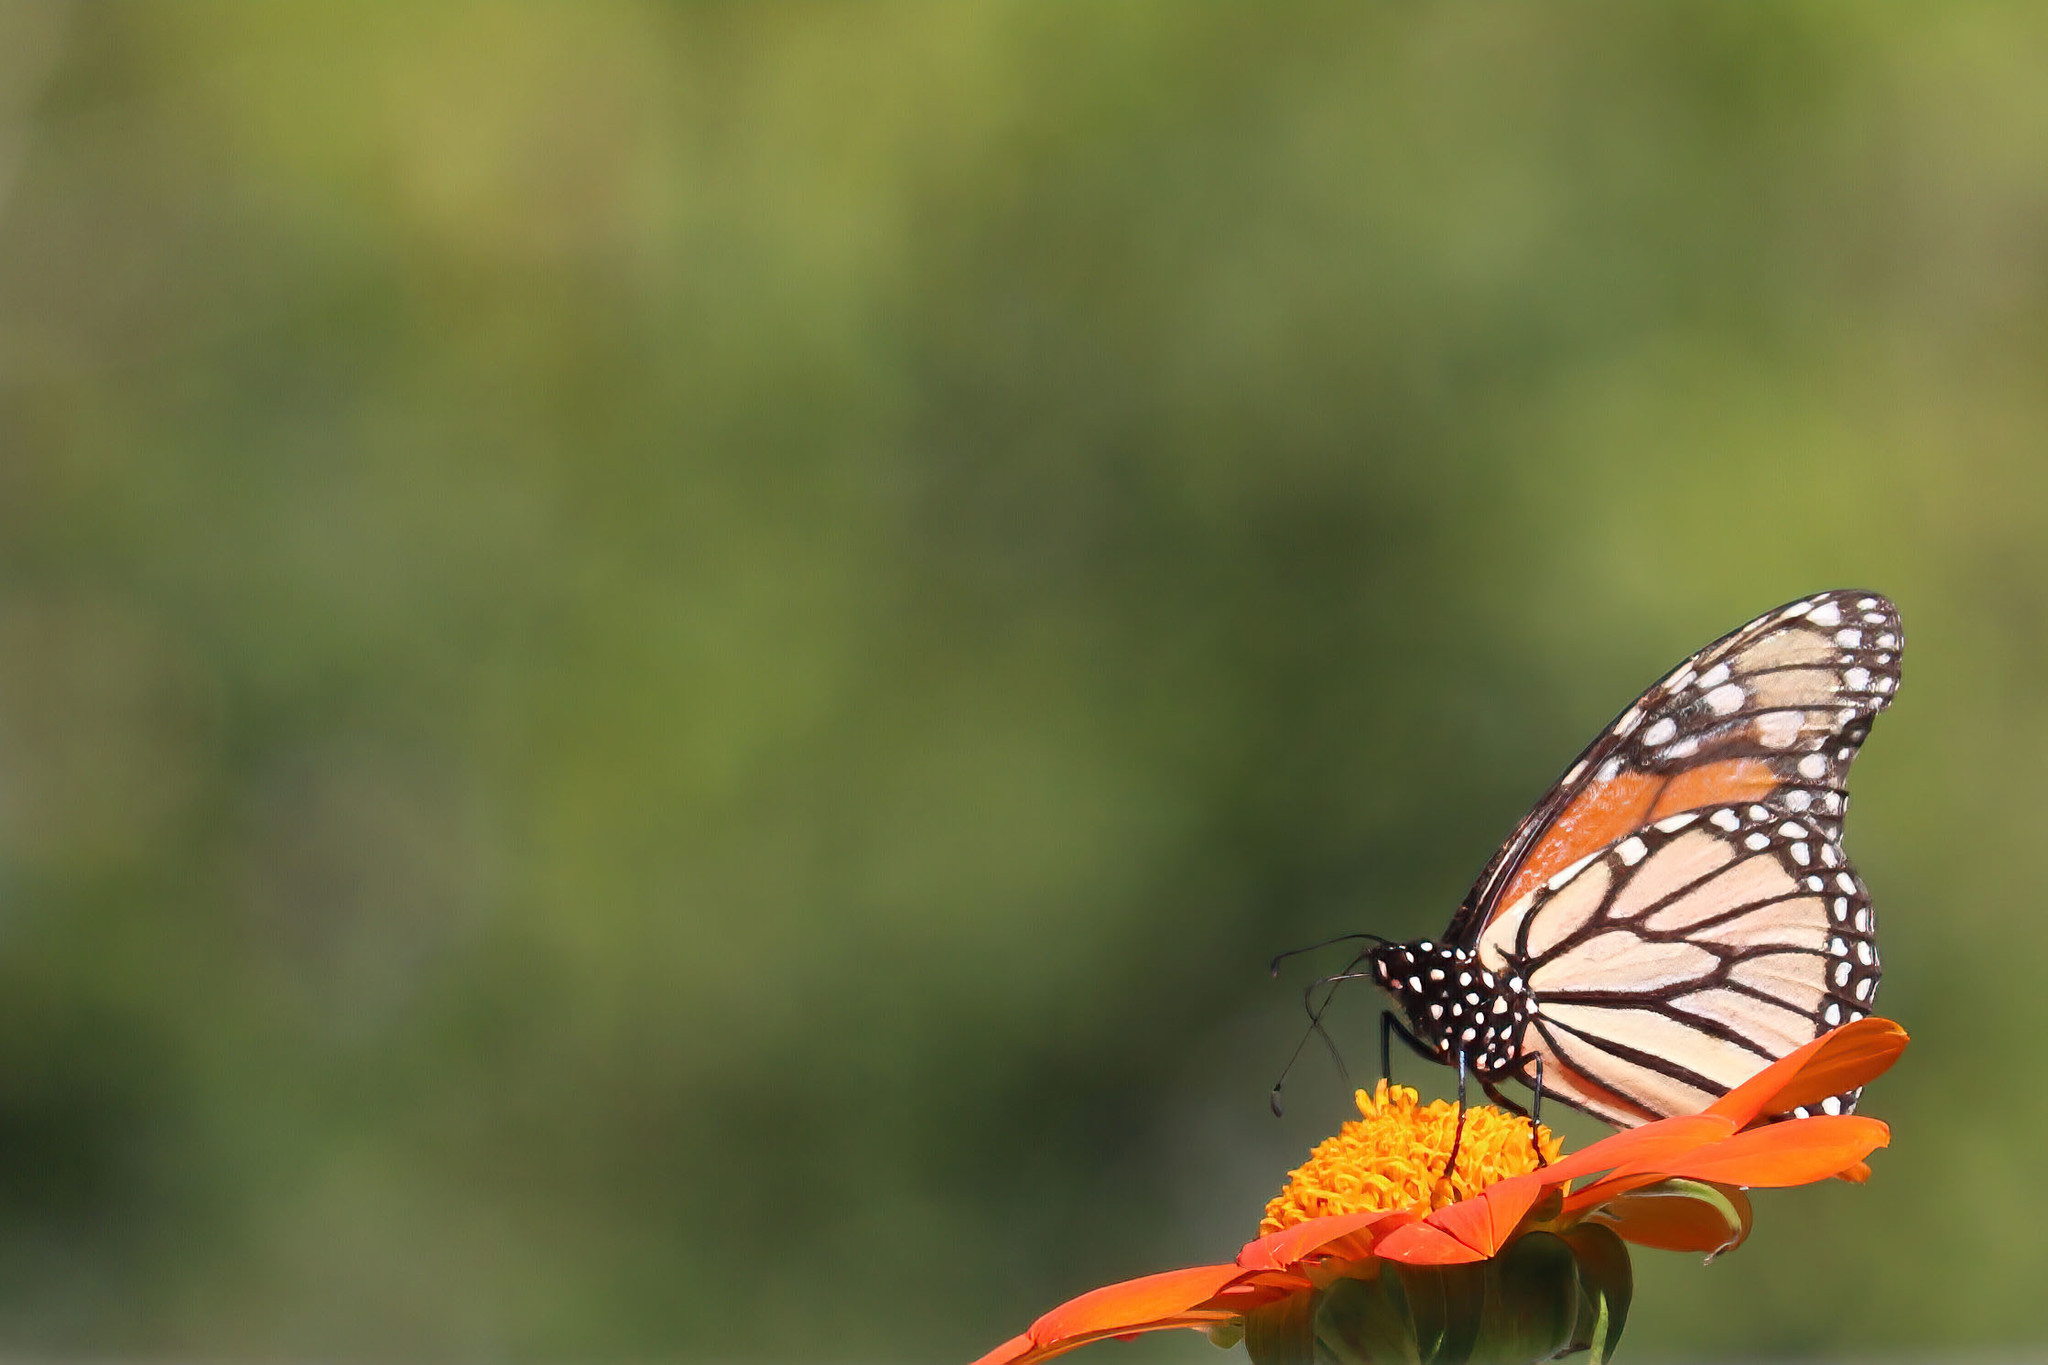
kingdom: Animalia
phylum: Arthropoda
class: Insecta
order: Lepidoptera
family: Nymphalidae
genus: Danaus
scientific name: Danaus plexippus
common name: Monarch
